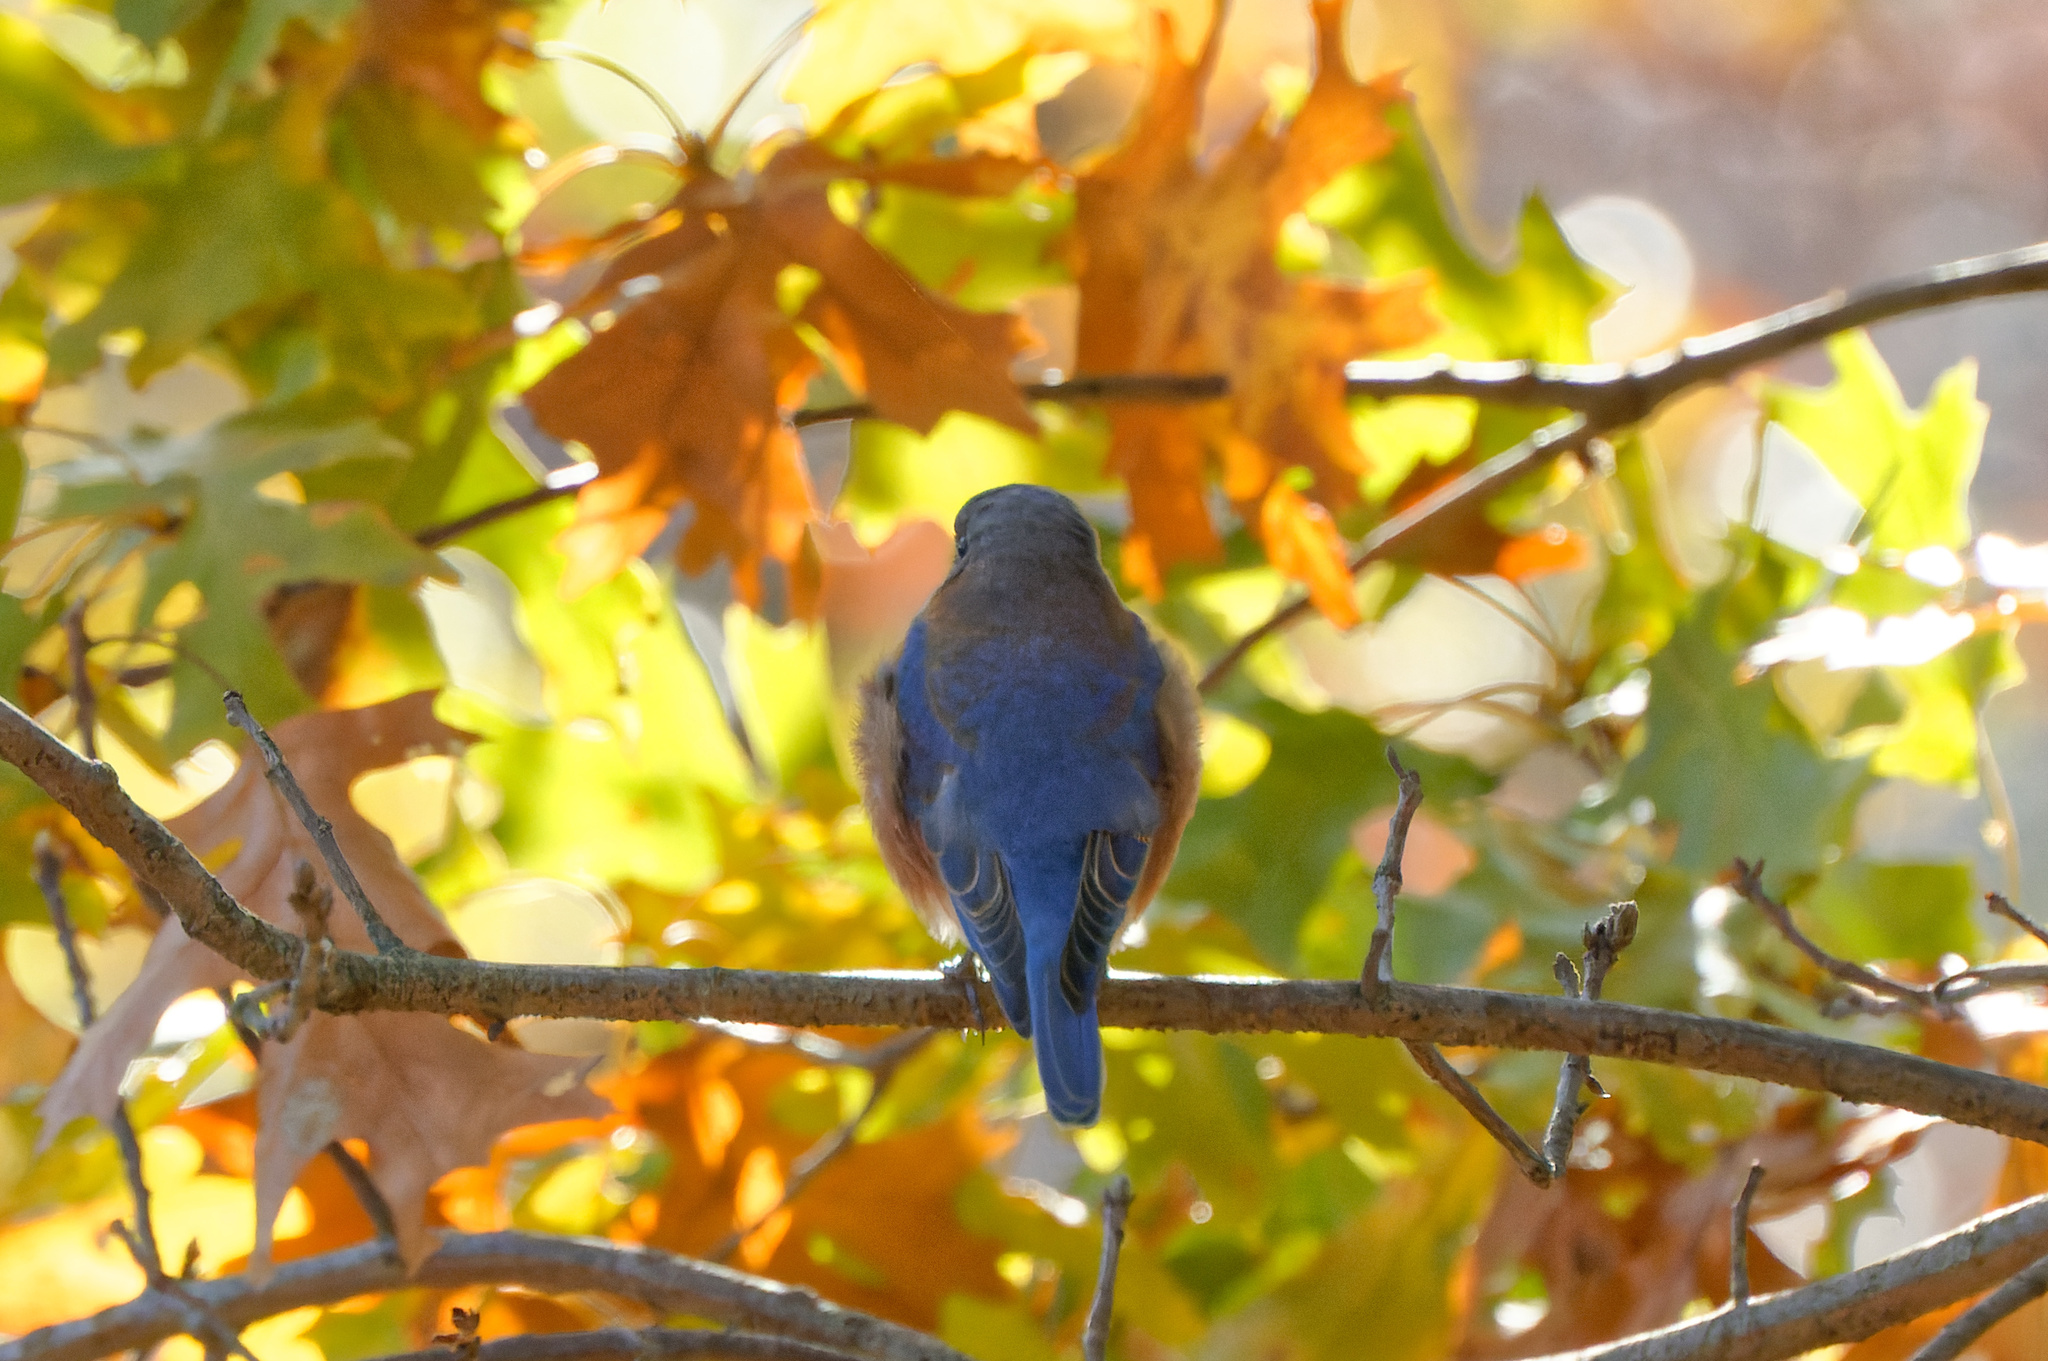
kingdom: Animalia
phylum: Chordata
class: Aves
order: Passeriformes
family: Turdidae
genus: Sialia
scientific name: Sialia sialis
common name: Eastern bluebird
